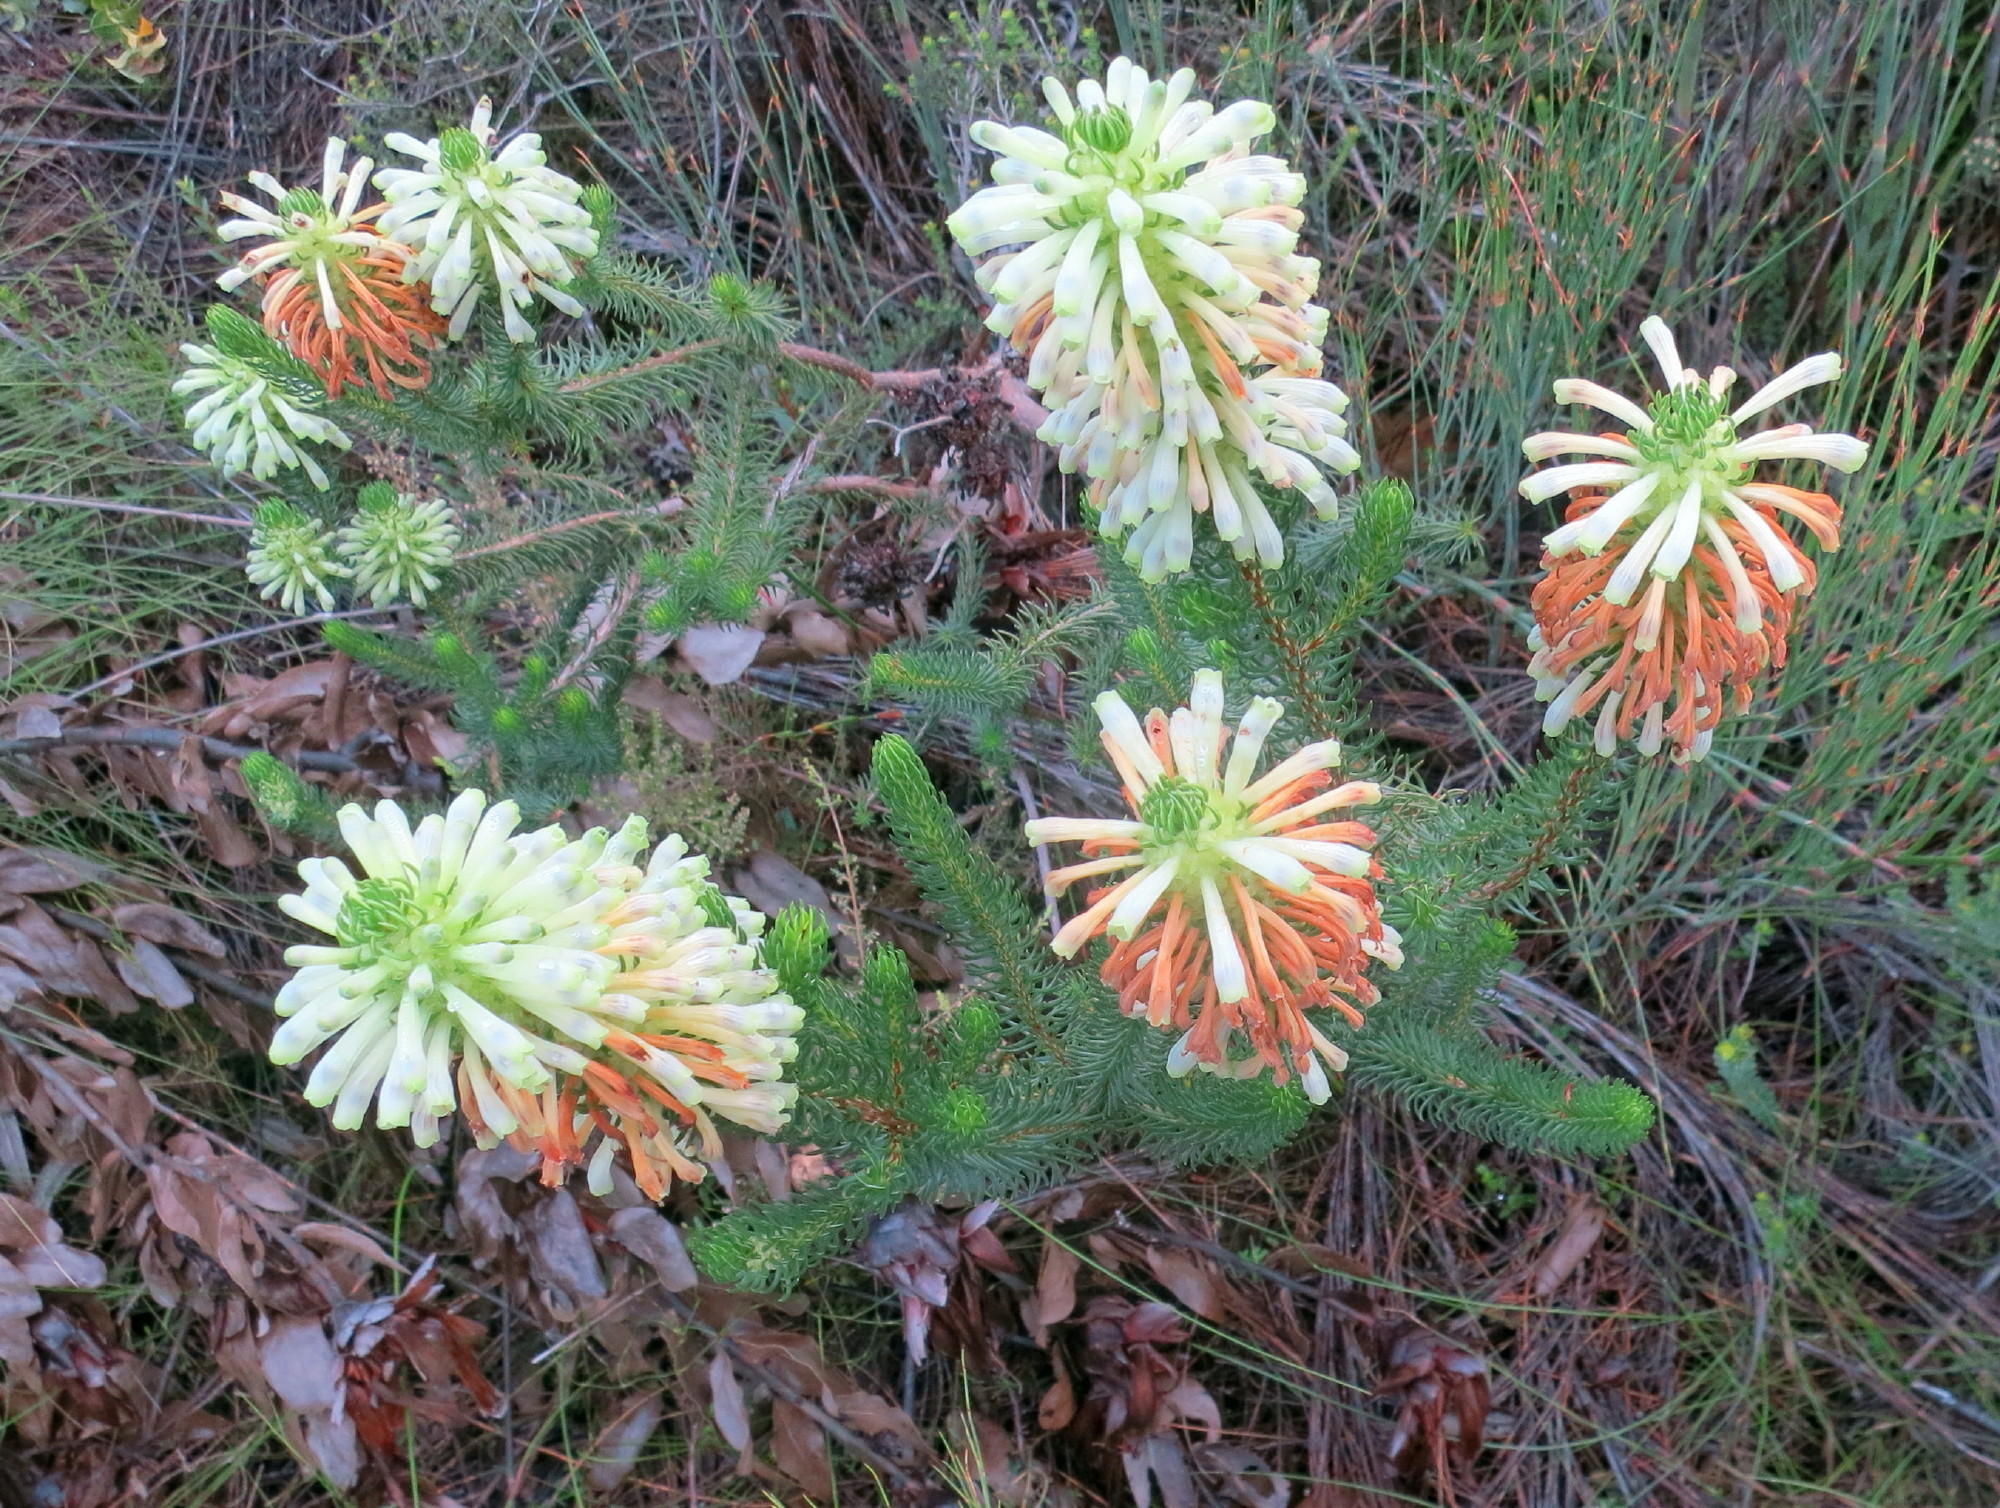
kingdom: Plantae
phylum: Tracheophyta
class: Magnoliopsida
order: Ericales
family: Ericaceae
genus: Erica
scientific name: Erica sessiliflora
